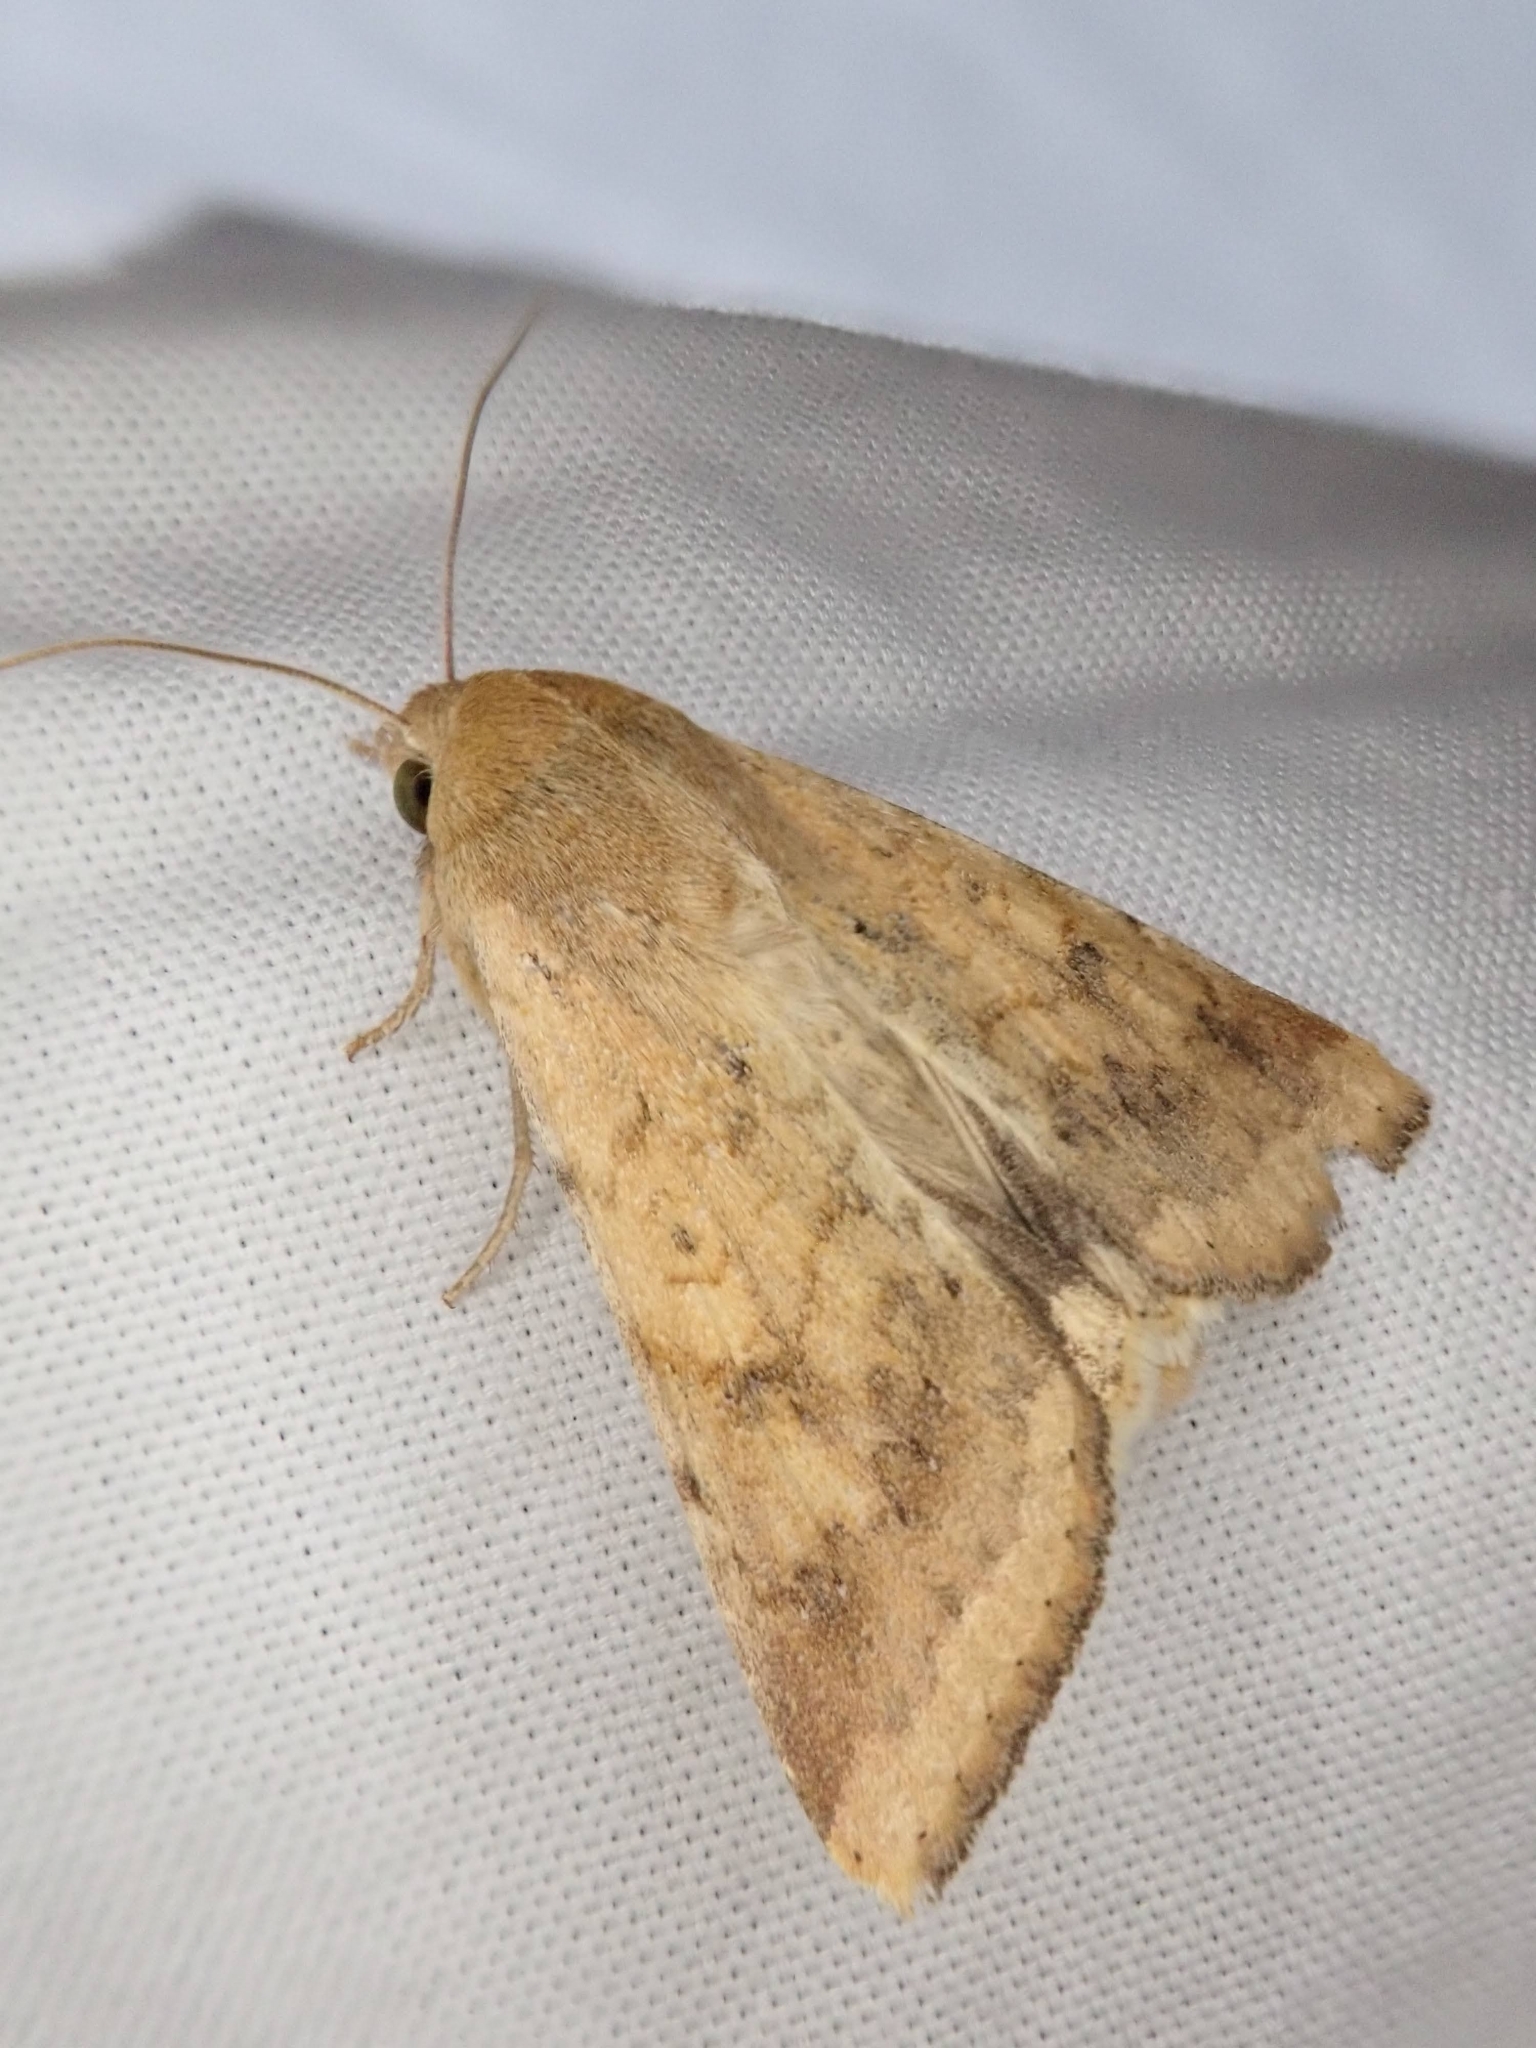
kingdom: Animalia
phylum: Arthropoda
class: Insecta
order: Lepidoptera
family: Noctuidae
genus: Helicoverpa
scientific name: Helicoverpa zea
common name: Bollworm
